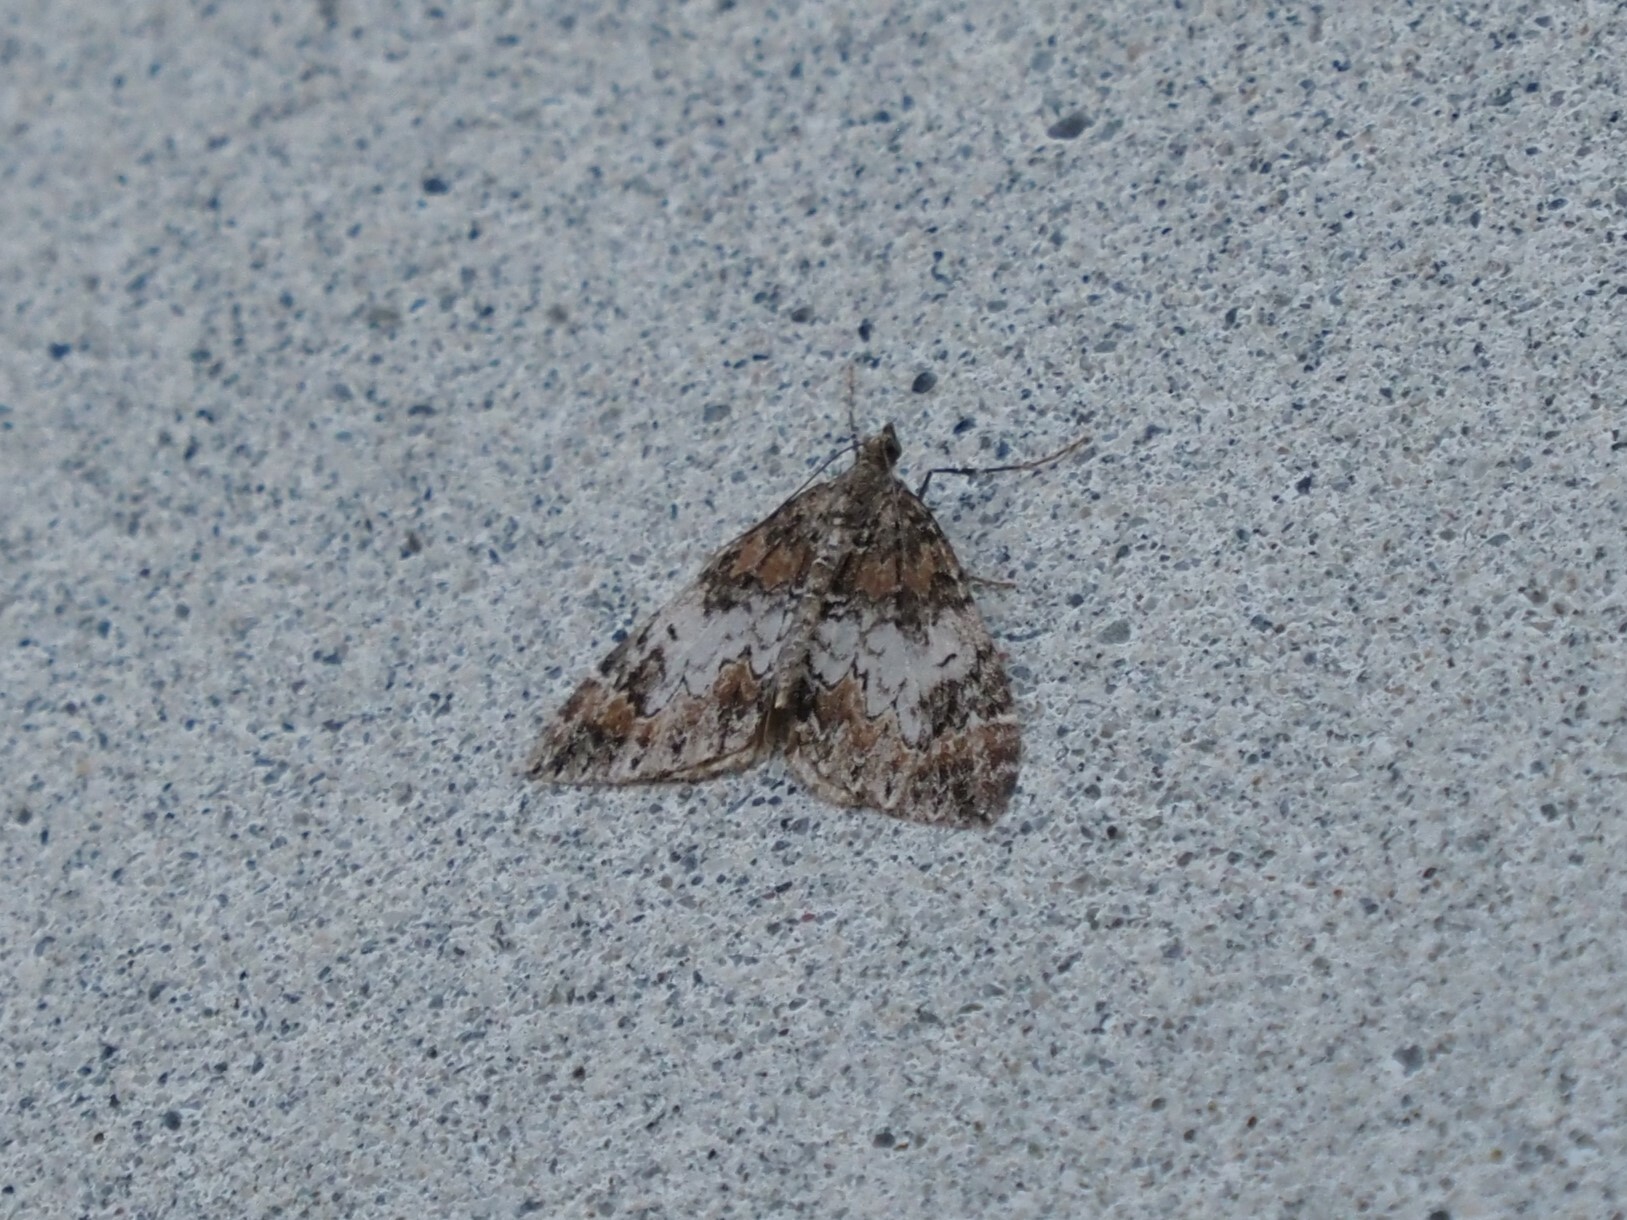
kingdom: Animalia
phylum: Arthropoda
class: Insecta
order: Lepidoptera
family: Geometridae
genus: Dysstroma
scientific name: Dysstroma citrata
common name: Dark marbled carpet
